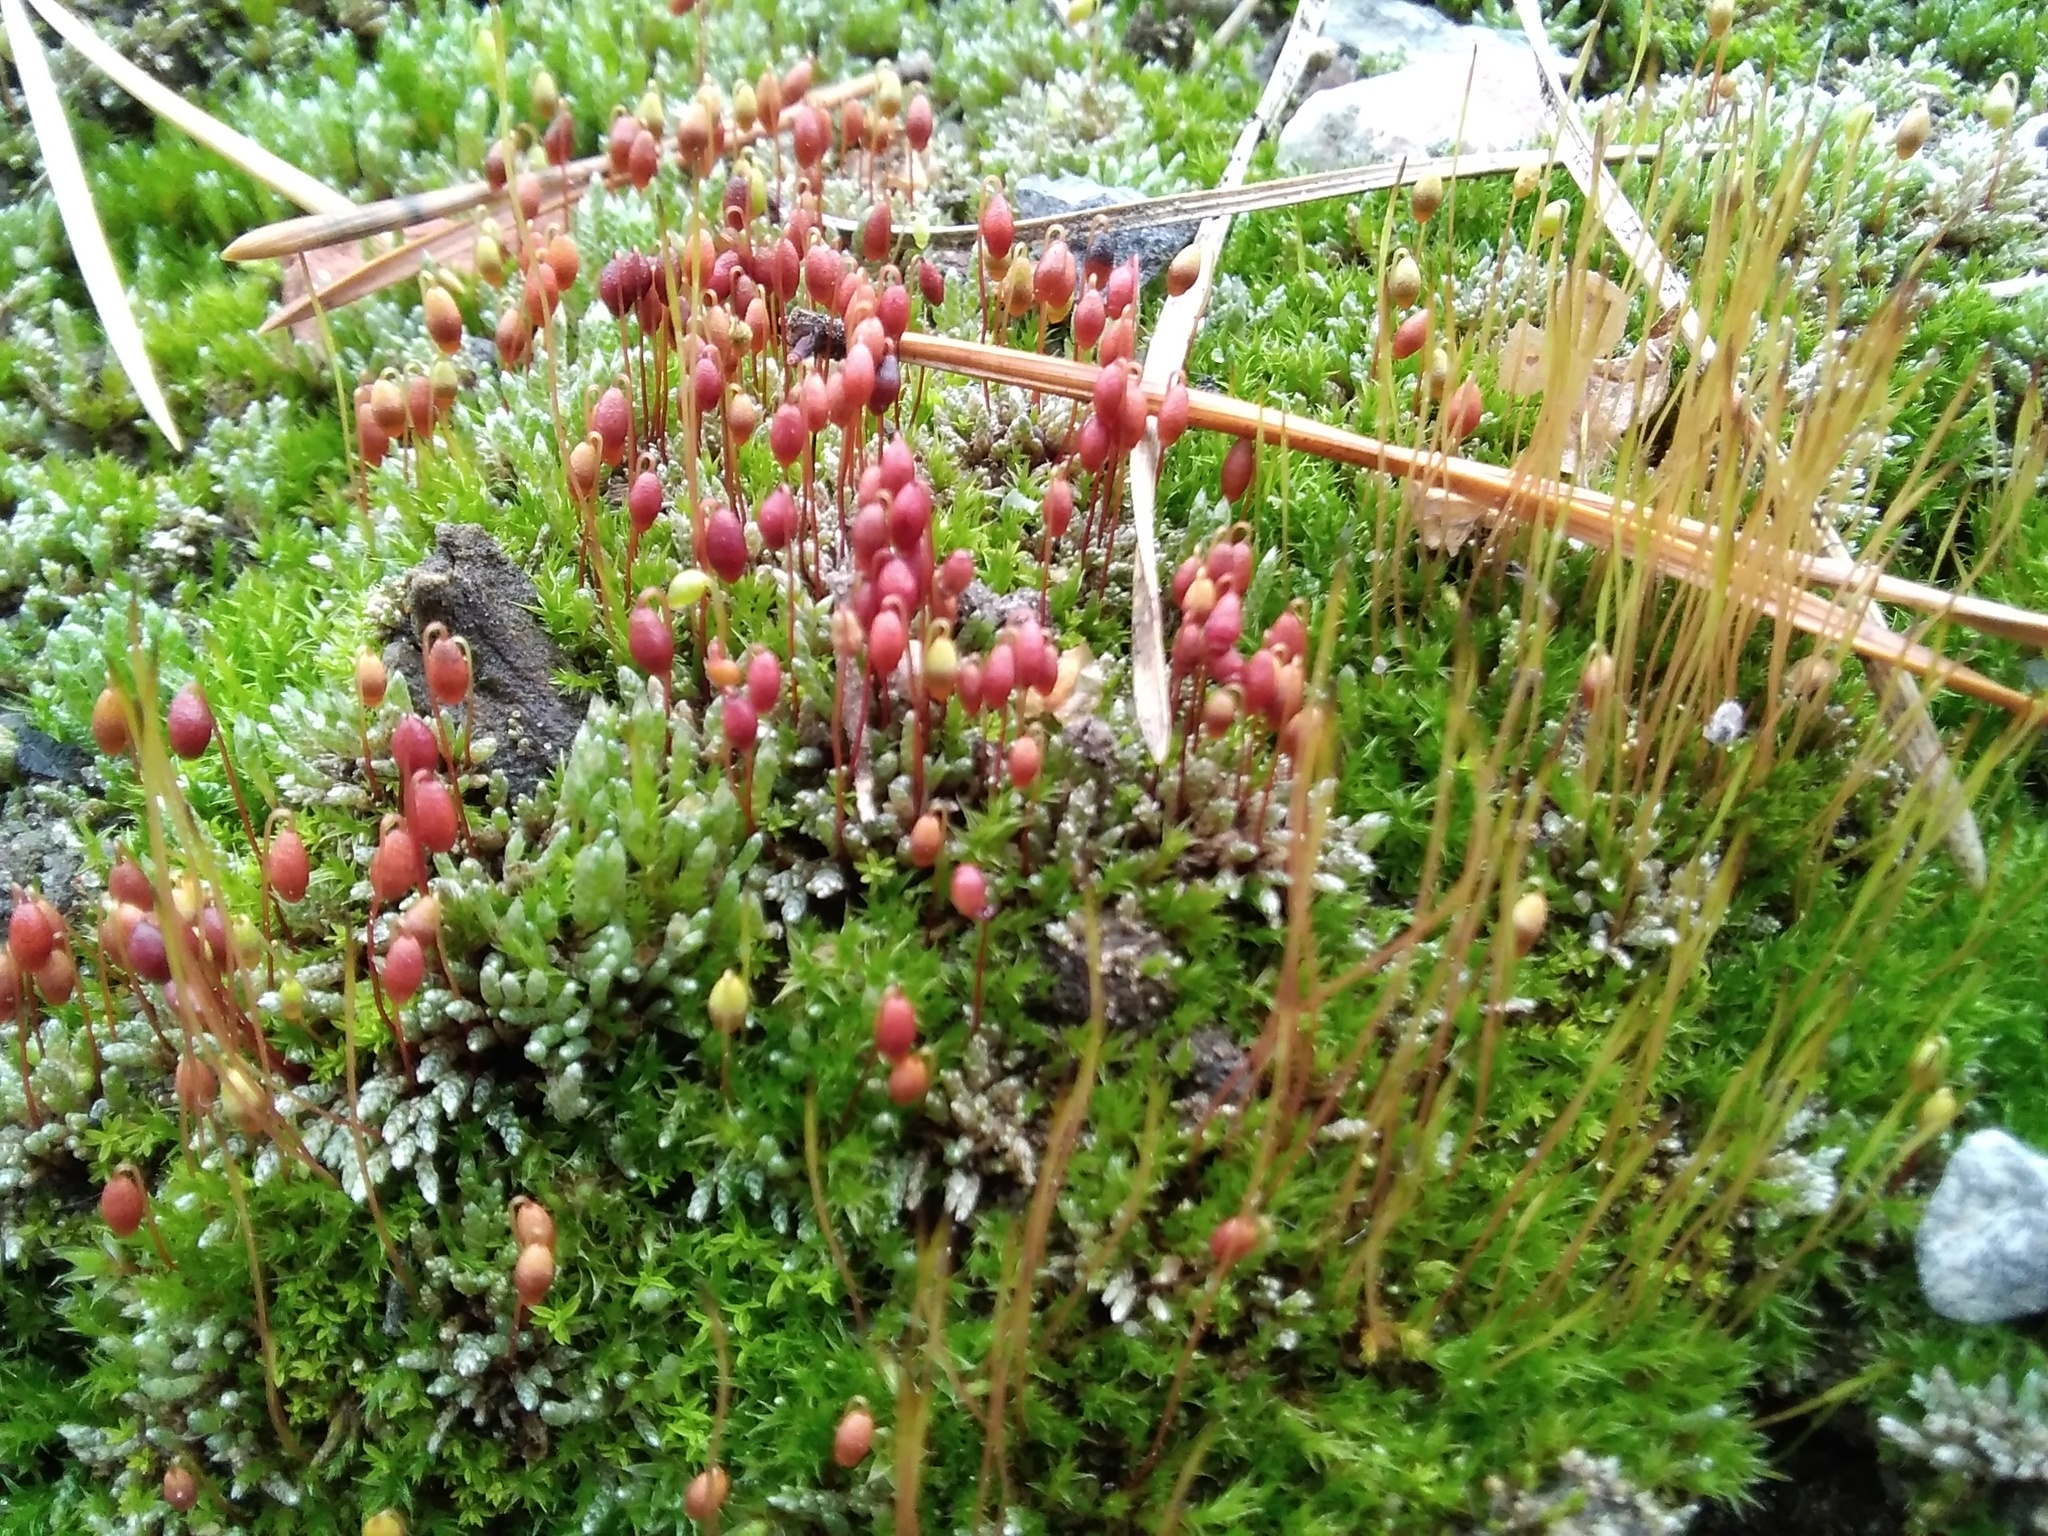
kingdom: Plantae
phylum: Bryophyta
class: Bryopsida
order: Bryales
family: Bryaceae
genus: Bryum
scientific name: Bryum argenteum
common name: Silver-moss
